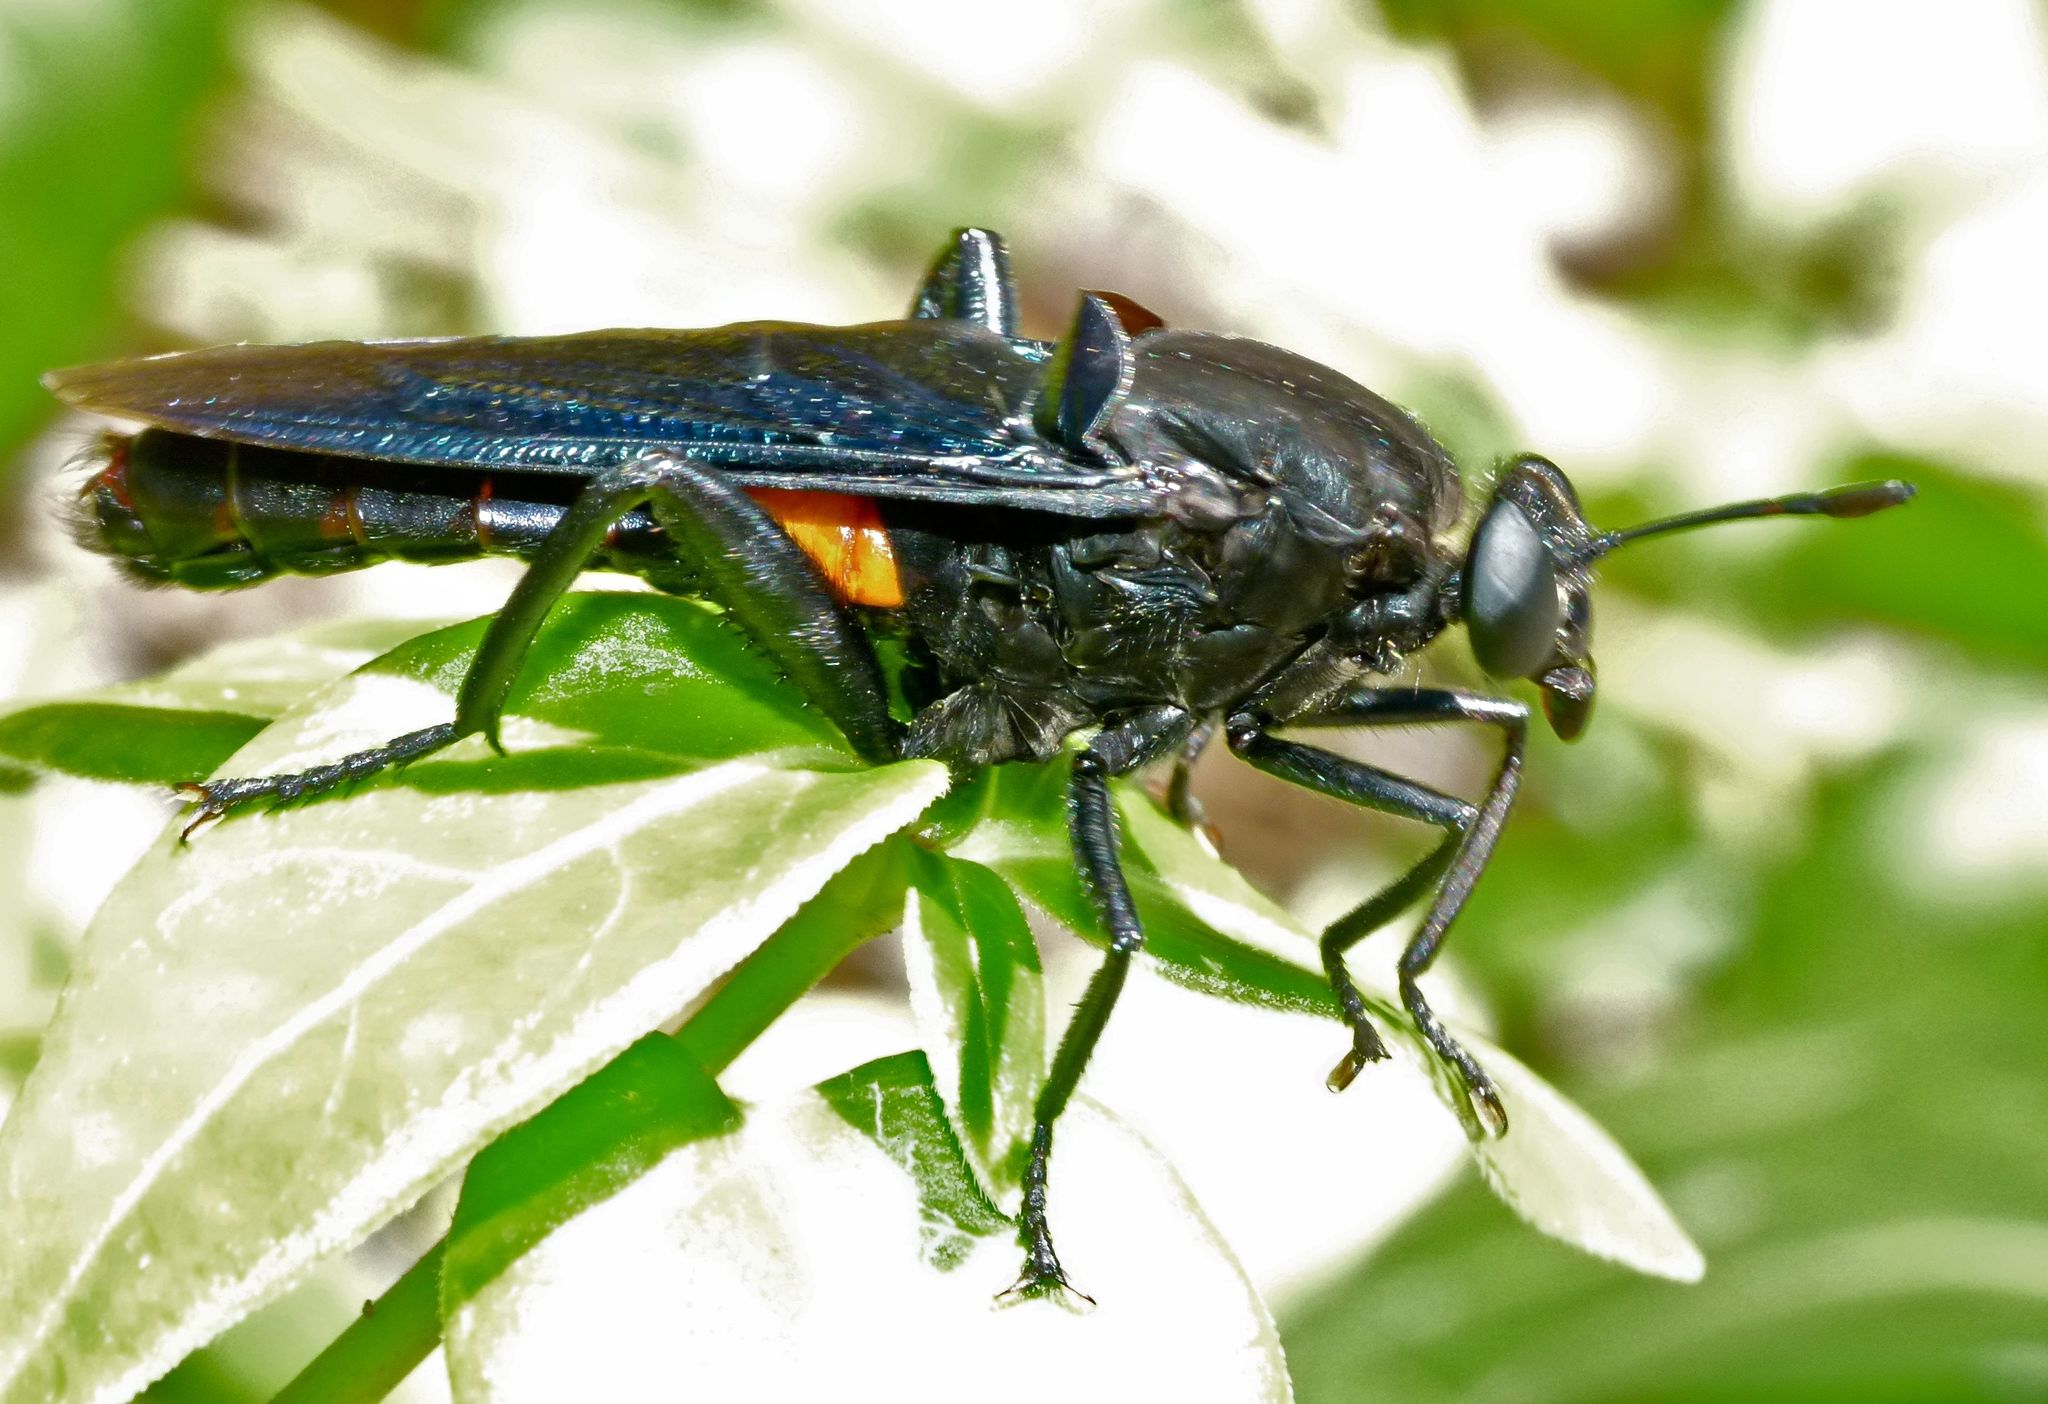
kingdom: Animalia
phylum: Arthropoda
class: Insecta
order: Diptera
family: Mydidae
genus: Mydas
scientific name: Mydas clavatus
